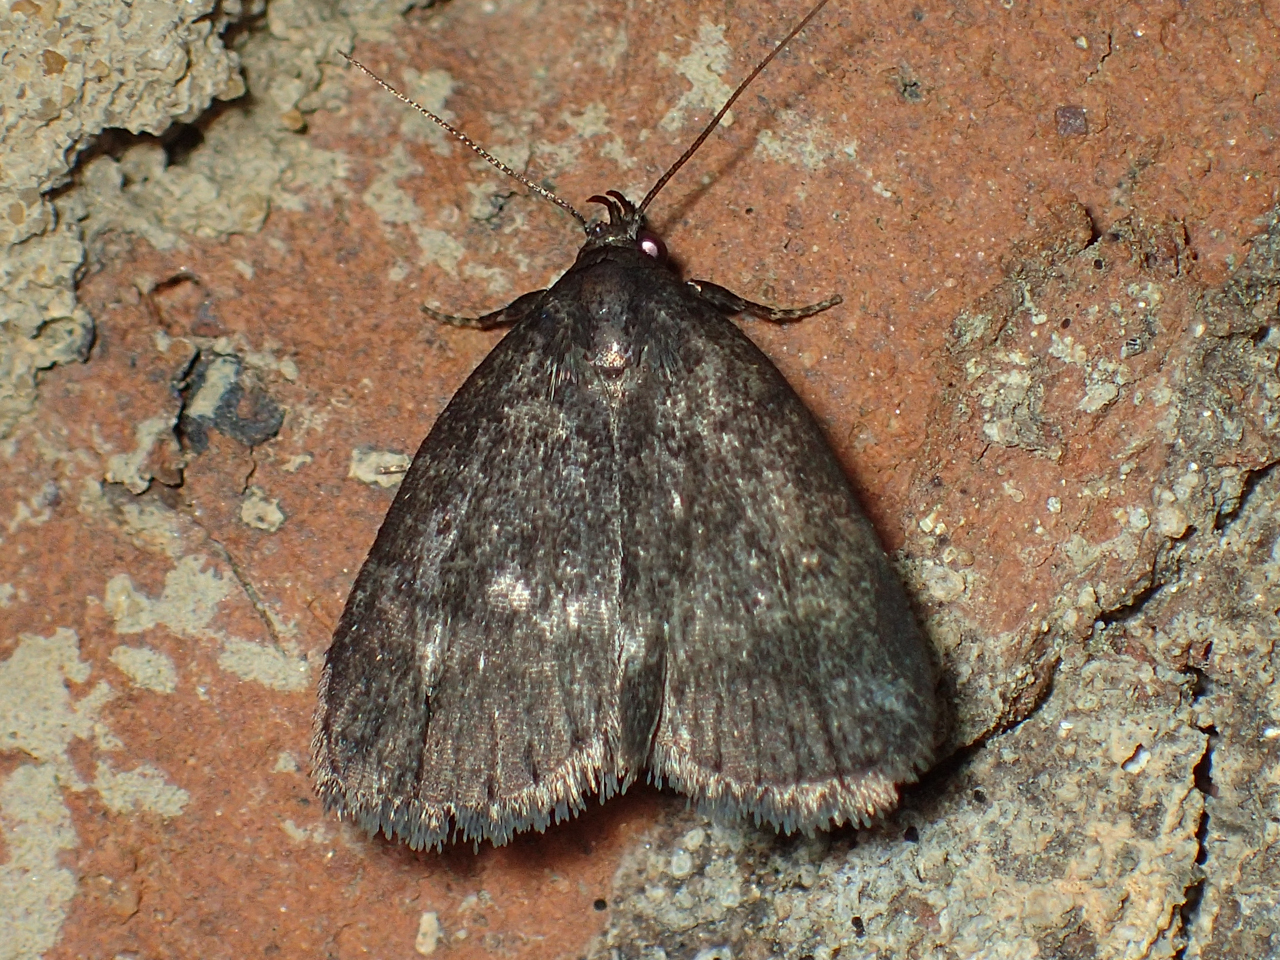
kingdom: Animalia
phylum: Arthropoda
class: Insecta
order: Lepidoptera
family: Erebidae
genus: Idia
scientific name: Idia rotundalis
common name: Rotund idia moth
